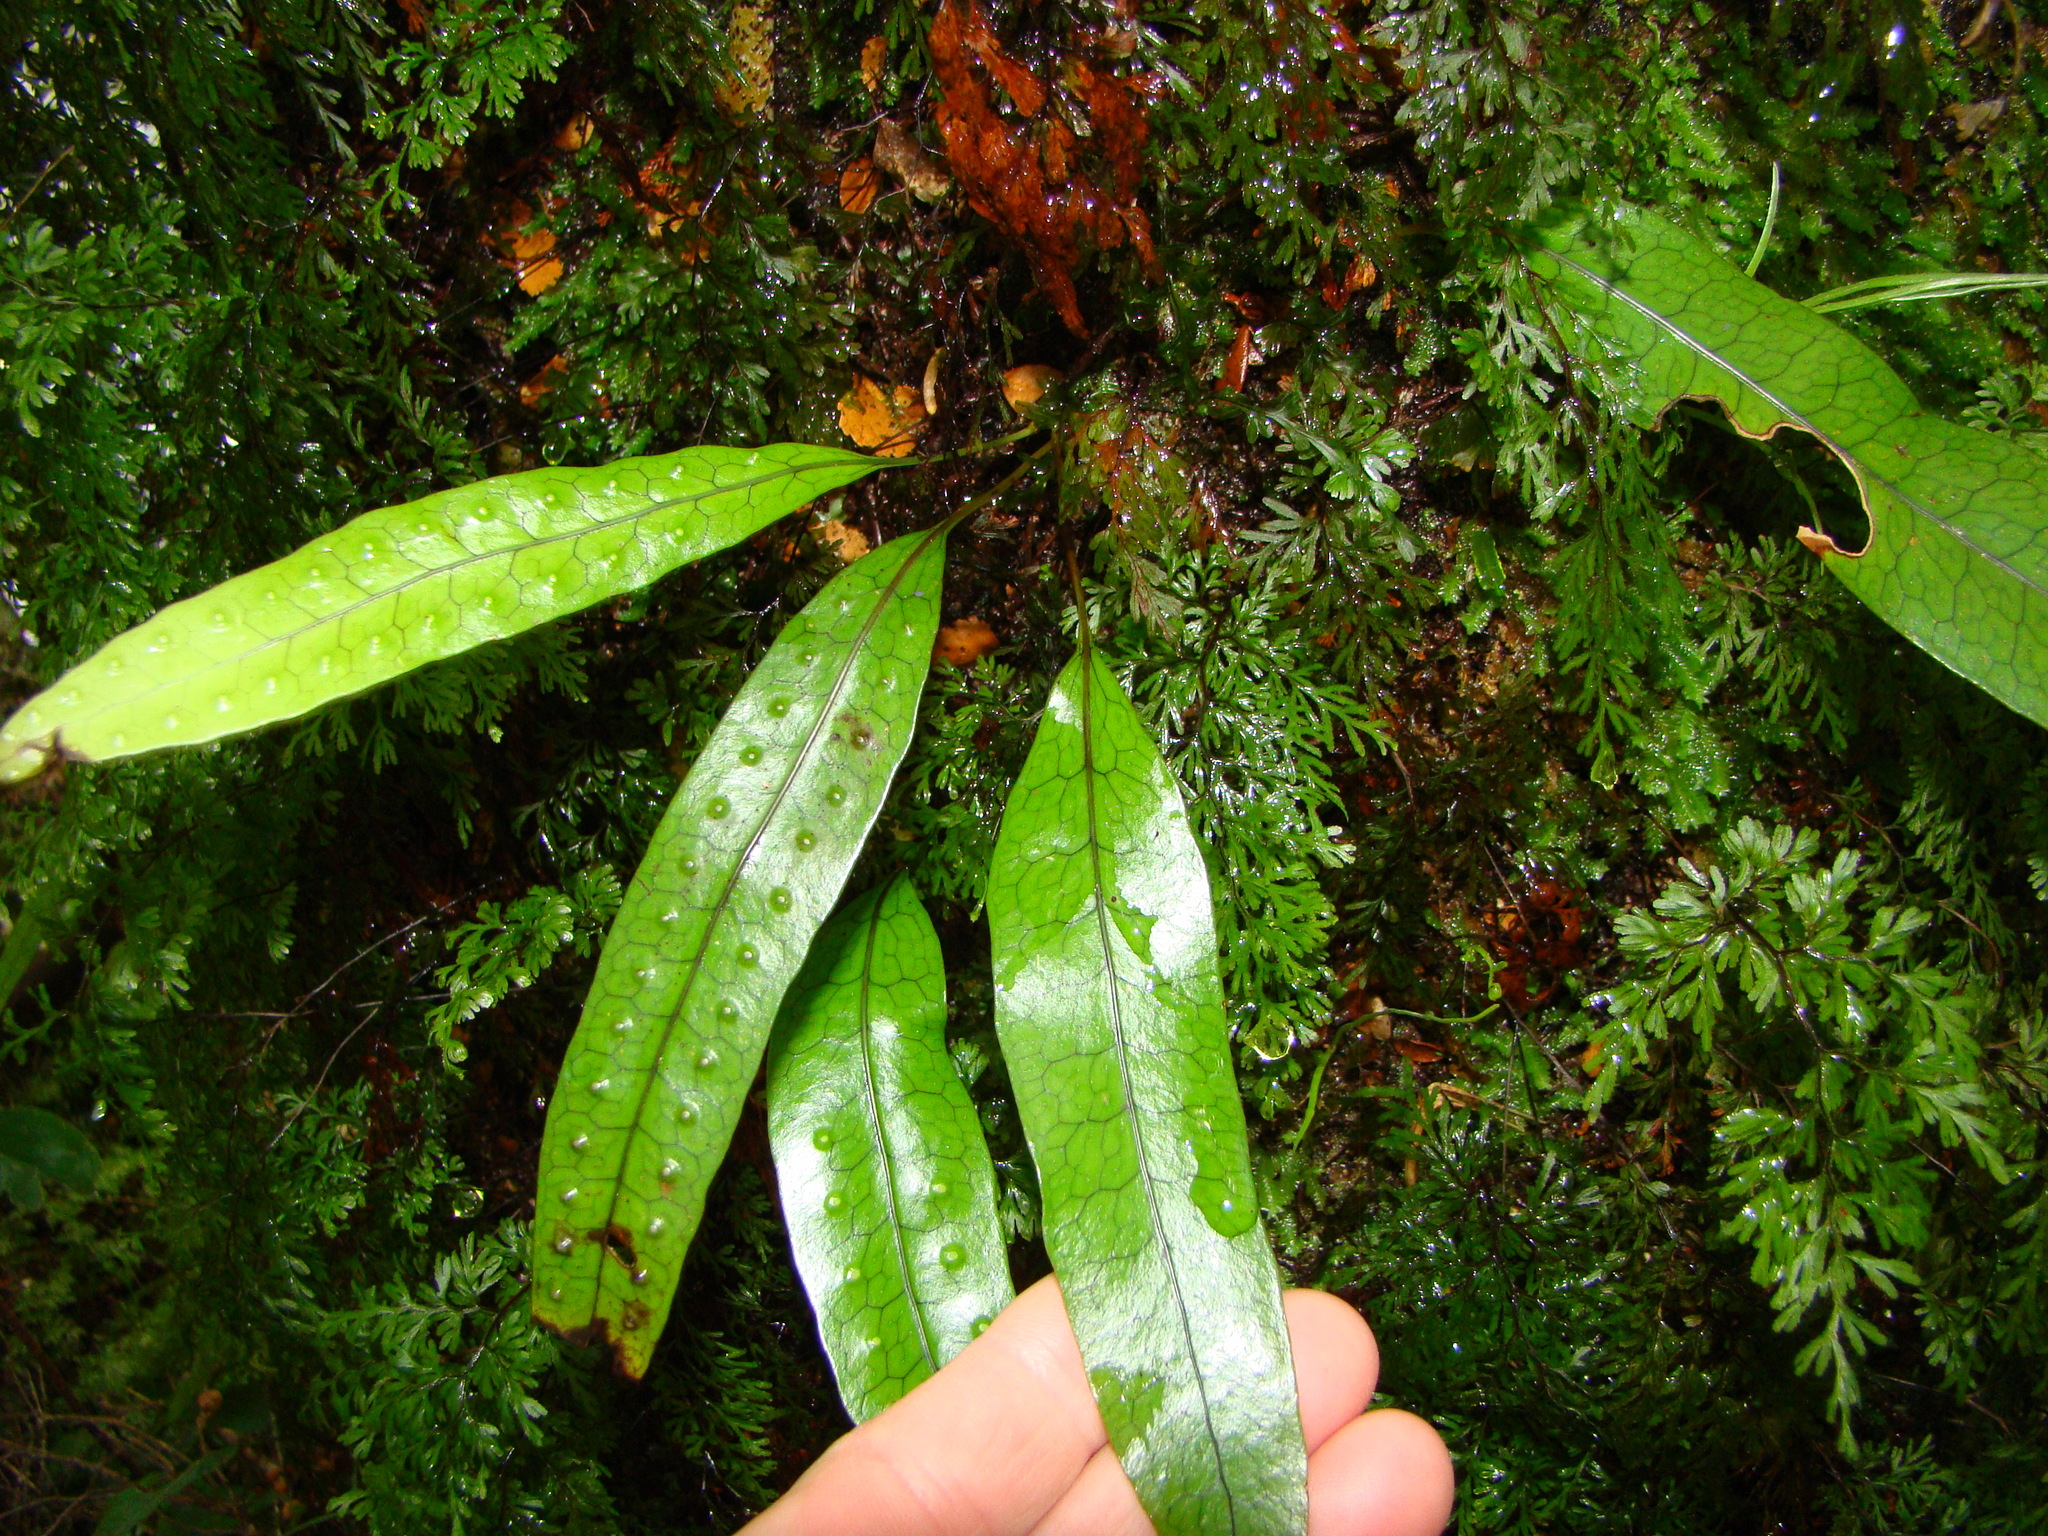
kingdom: Plantae
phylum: Tracheophyta
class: Polypodiopsida
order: Polypodiales
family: Polypodiaceae
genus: Lecanopteris
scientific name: Lecanopteris pustulata
